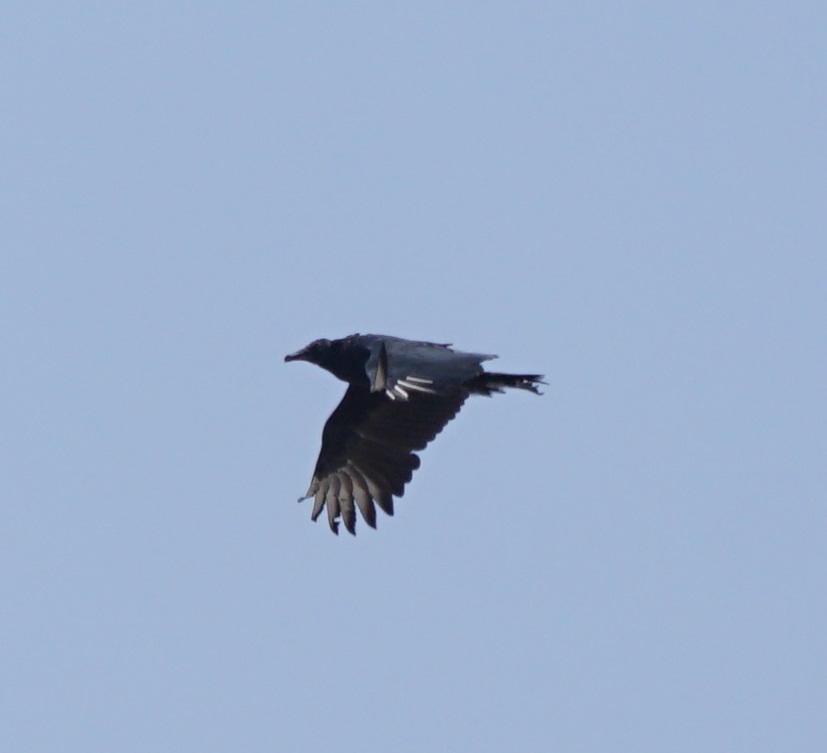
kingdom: Animalia
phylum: Chordata
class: Aves
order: Accipitriformes
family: Cathartidae
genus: Coragyps
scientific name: Coragyps atratus
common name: Black vulture
